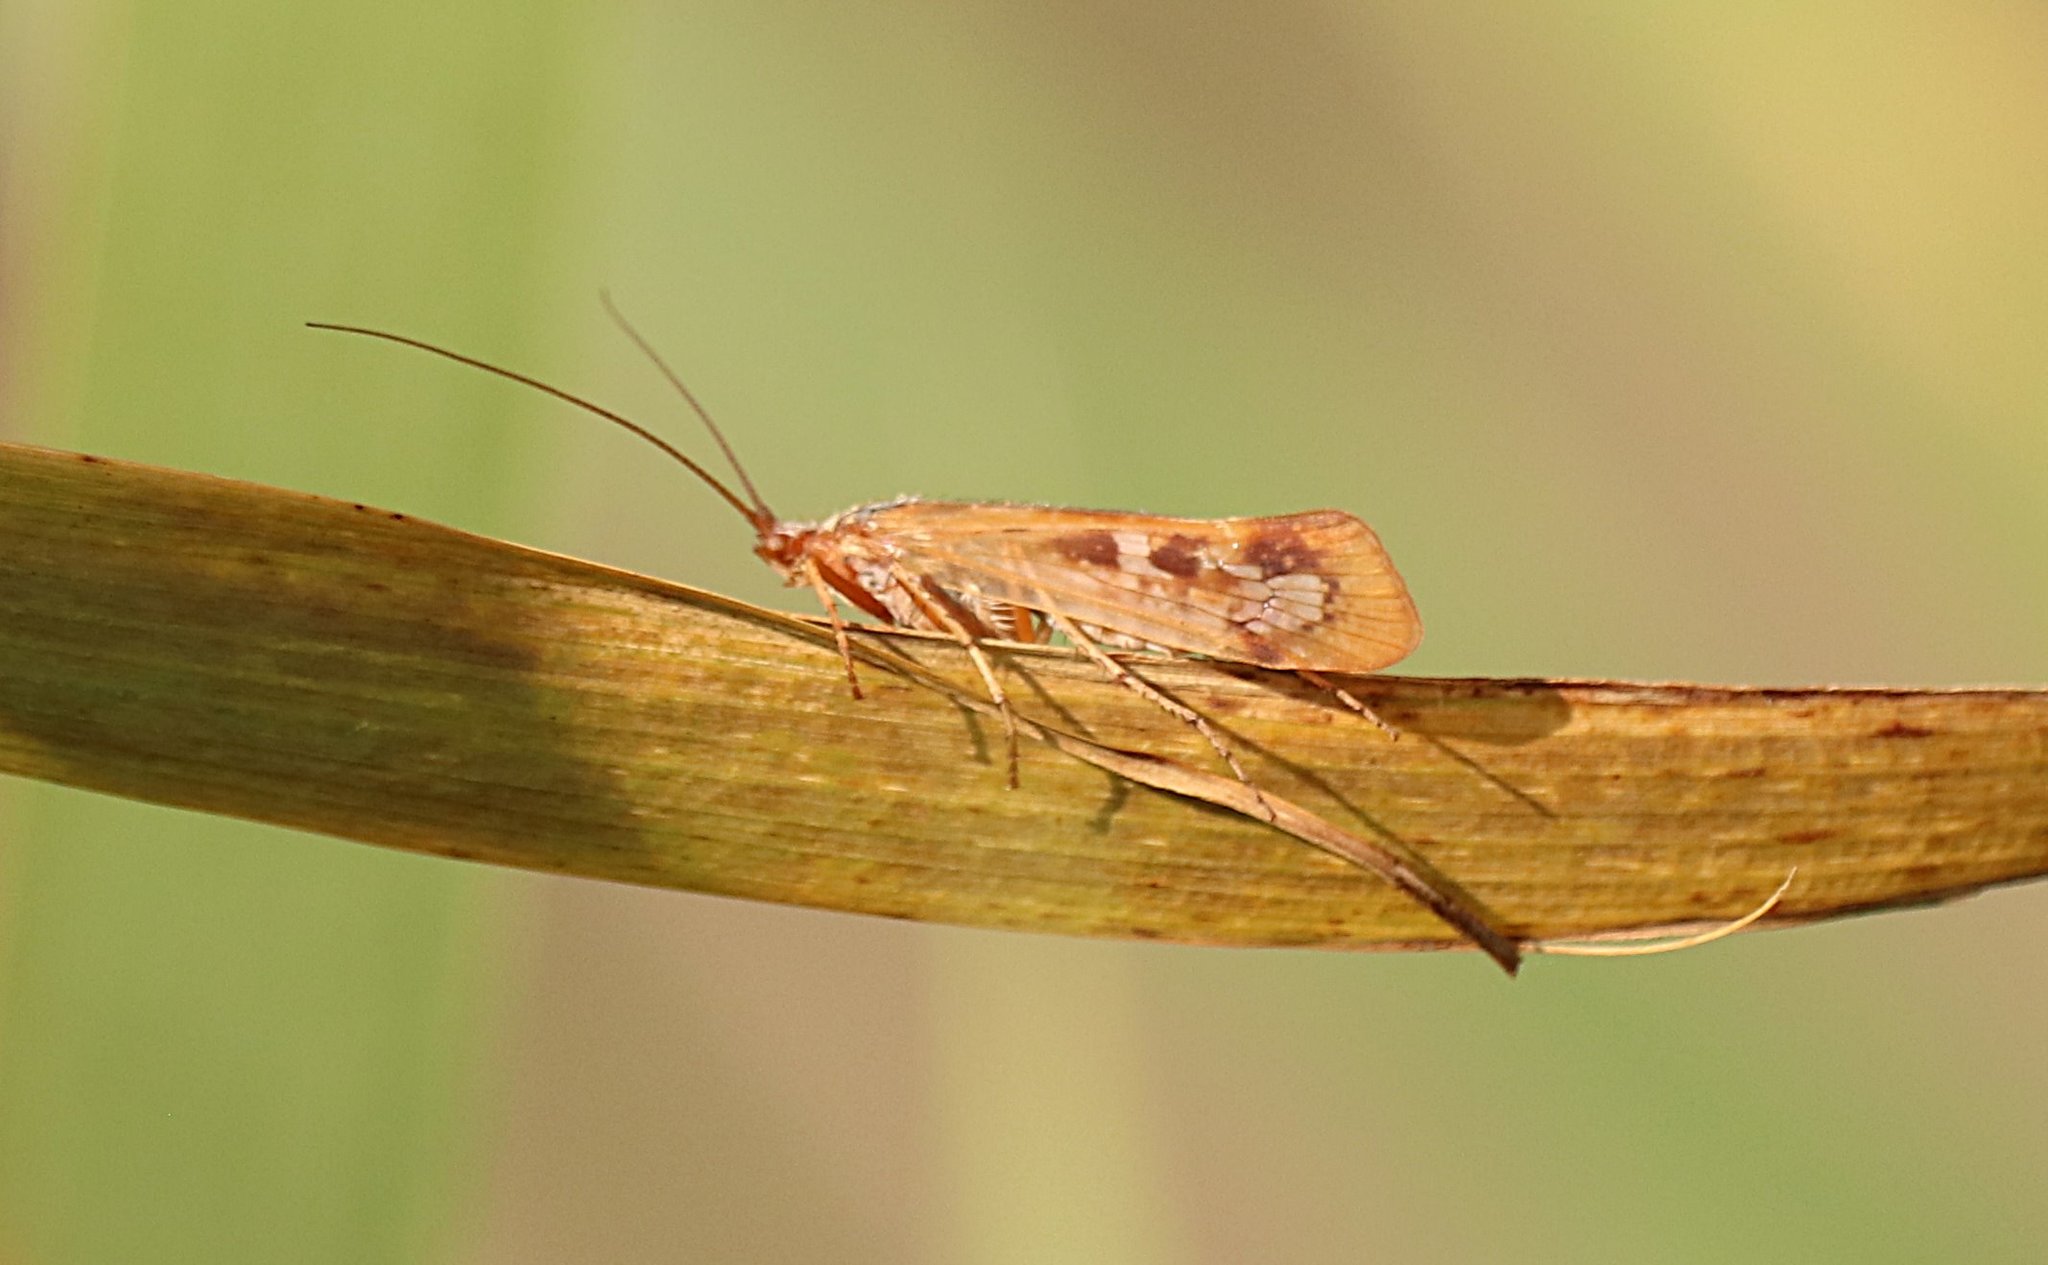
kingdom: Animalia
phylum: Arthropoda
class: Insecta
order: Trichoptera
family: Limnephilidae
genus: Limnephilus
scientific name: Limnephilus marmoratus
